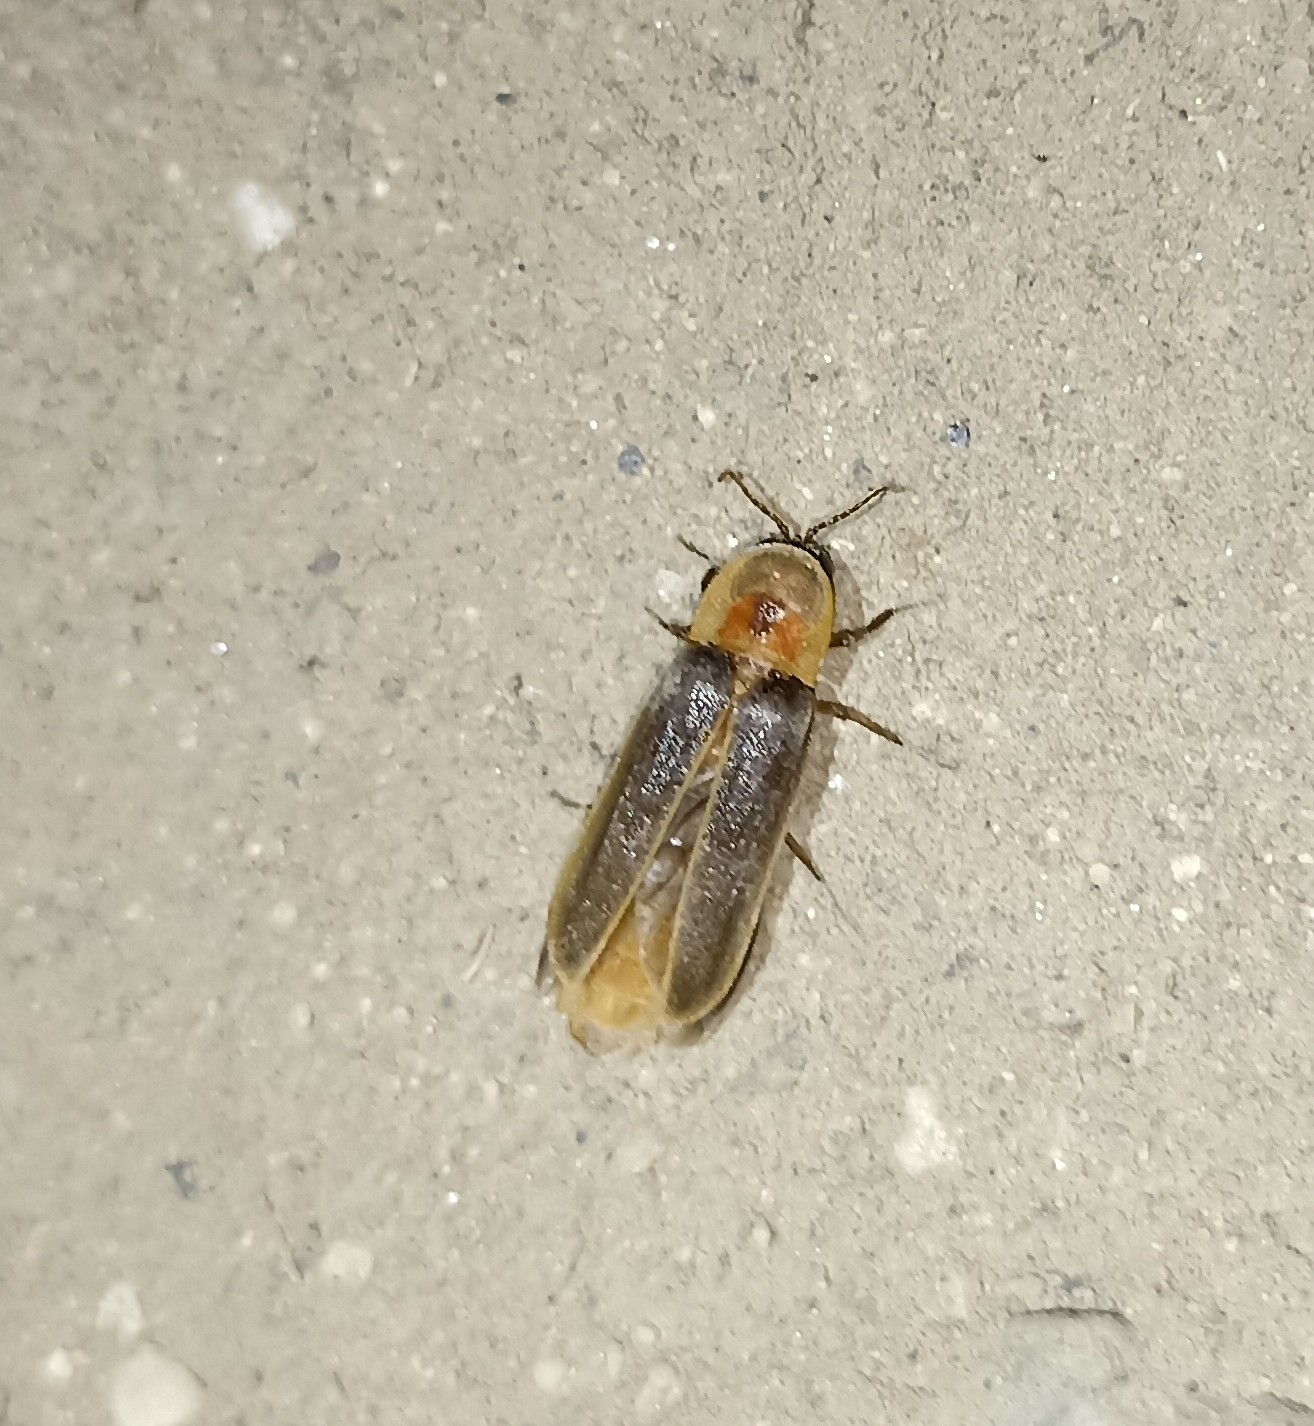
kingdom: Animalia
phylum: Arthropoda
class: Insecta
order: Coleoptera
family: Lampyridae
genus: Nyctophila
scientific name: Nyctophila reichii
